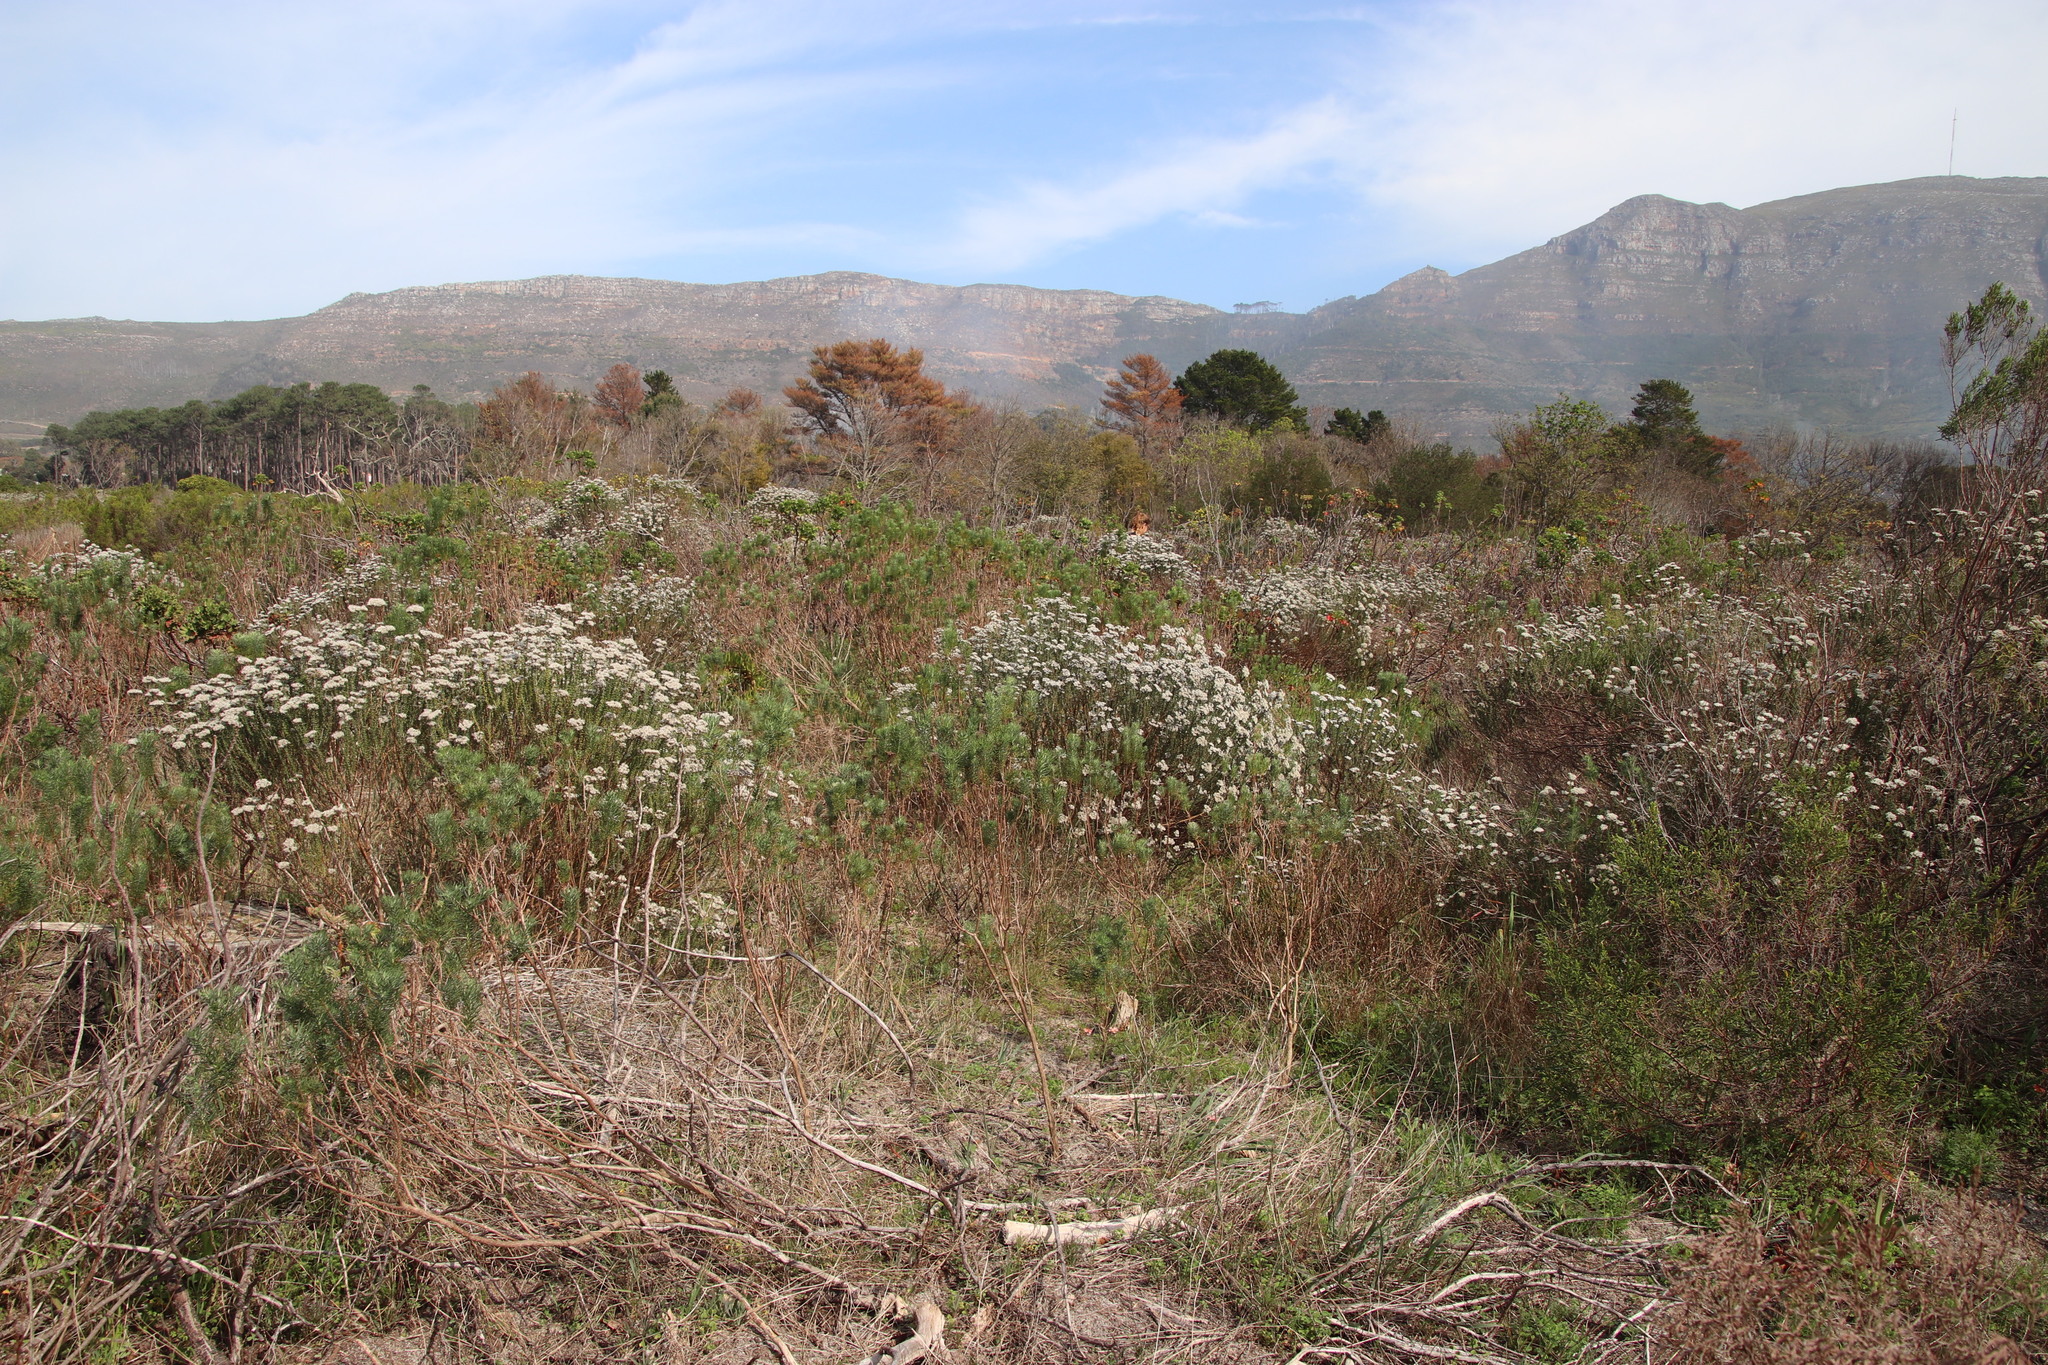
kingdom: Plantae
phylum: Tracheophyta
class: Magnoliopsida
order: Asterales
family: Asteraceae
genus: Athanasia
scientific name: Athanasia crithmifolia
